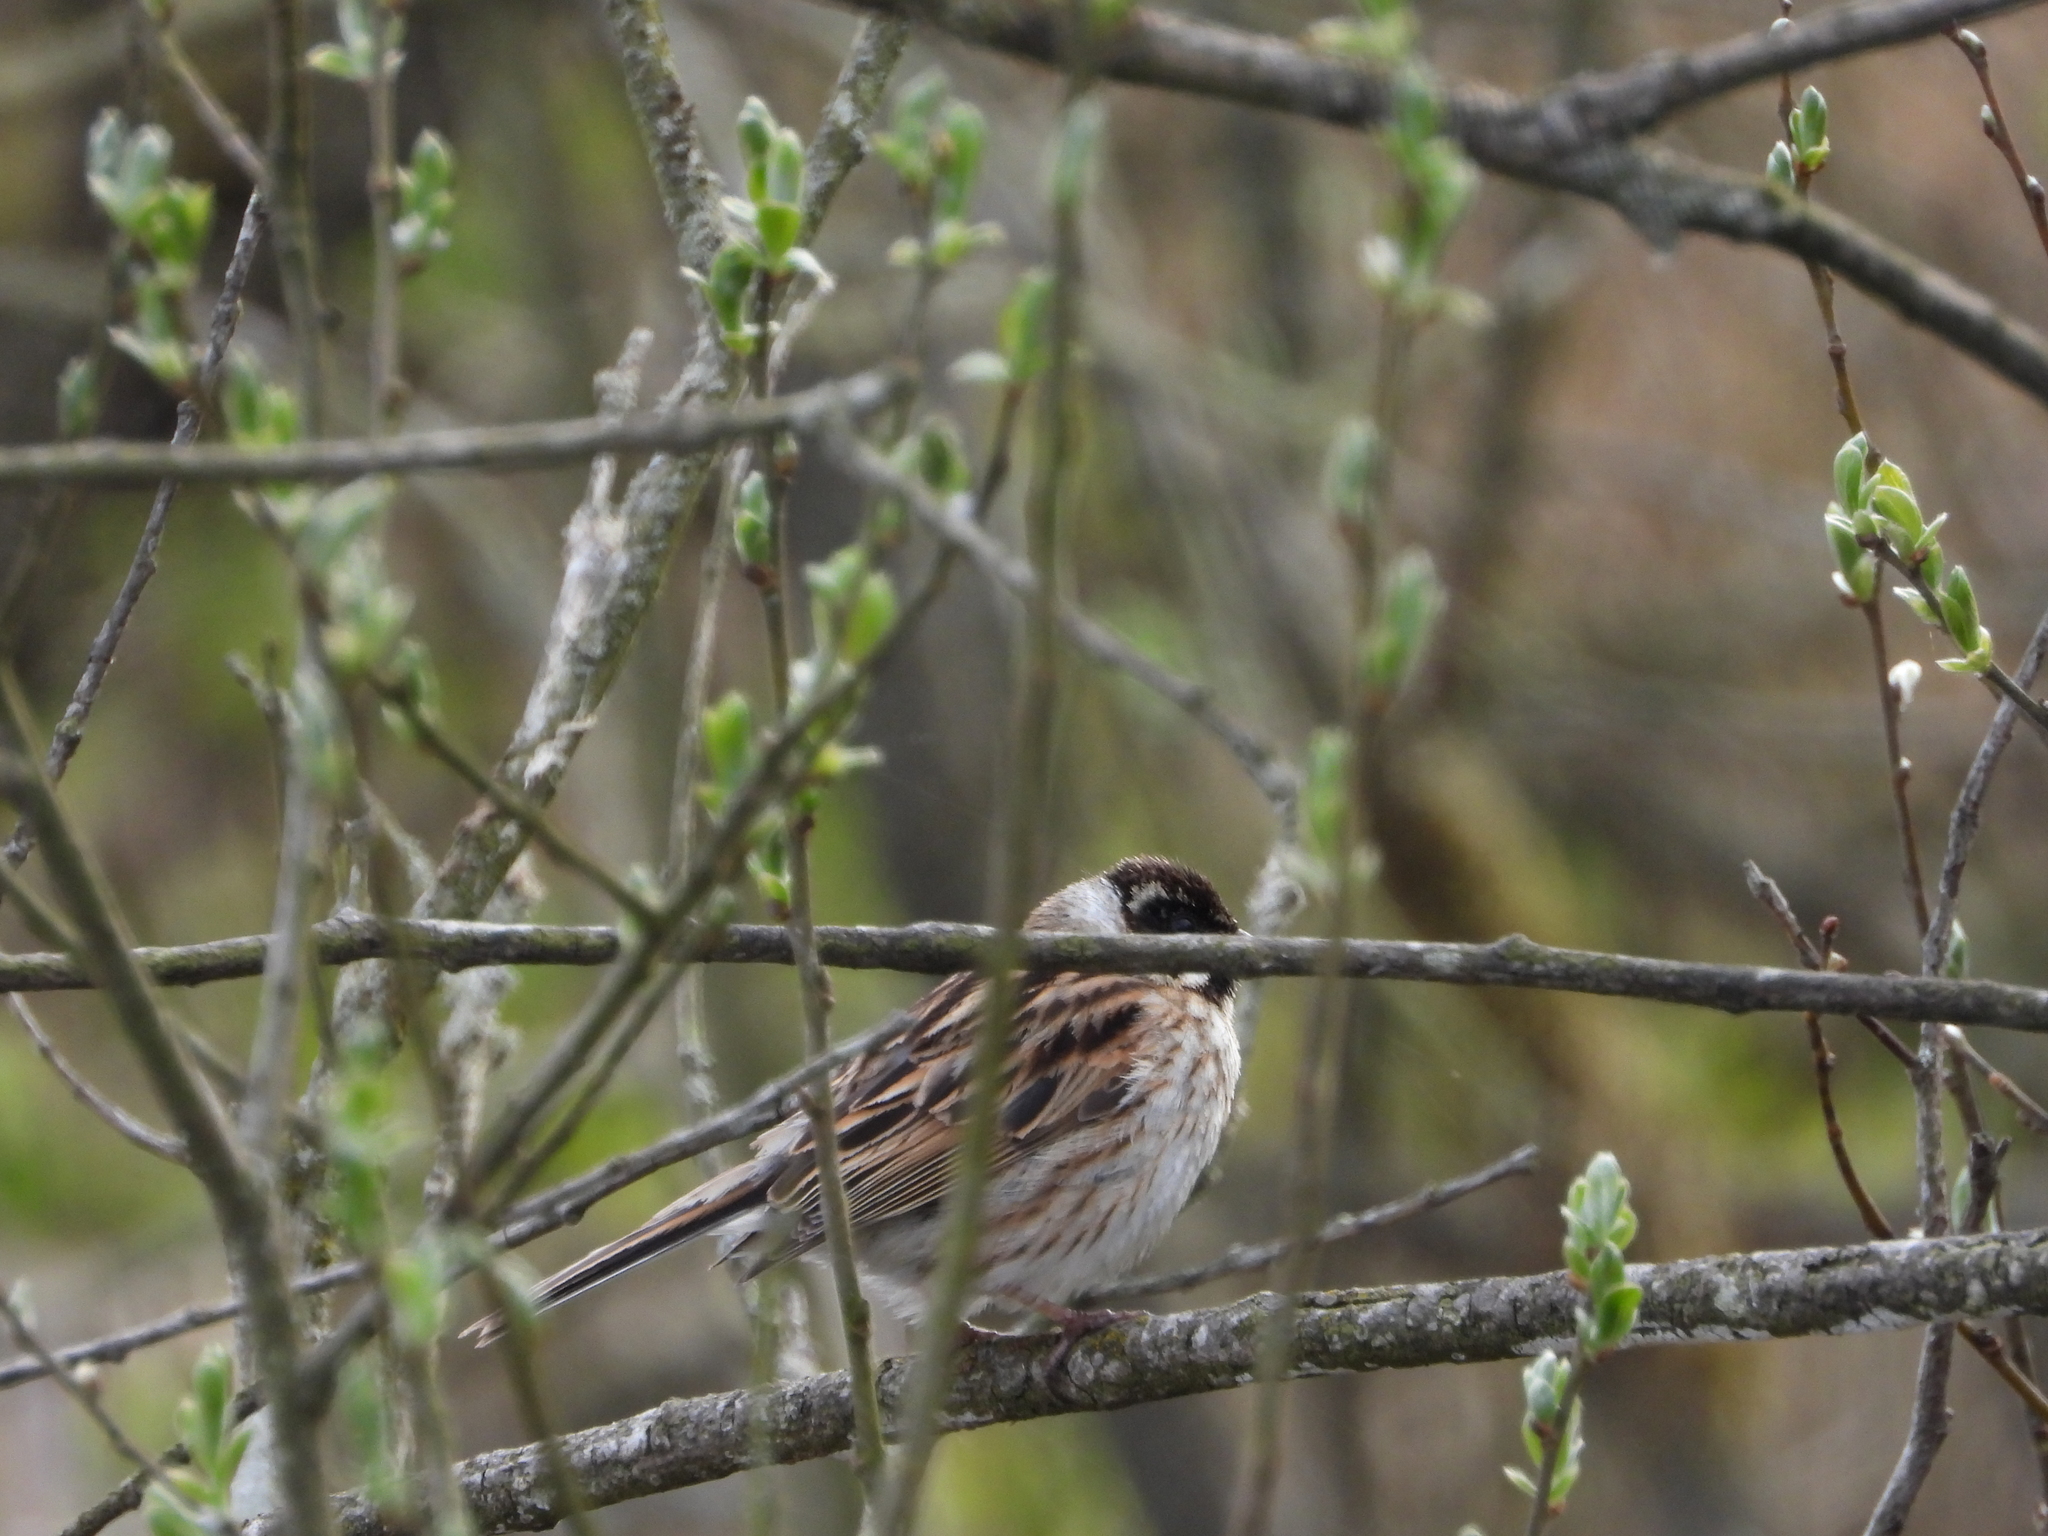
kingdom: Animalia
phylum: Chordata
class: Aves
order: Passeriformes
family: Emberizidae
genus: Emberiza
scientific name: Emberiza schoeniclus
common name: Reed bunting
